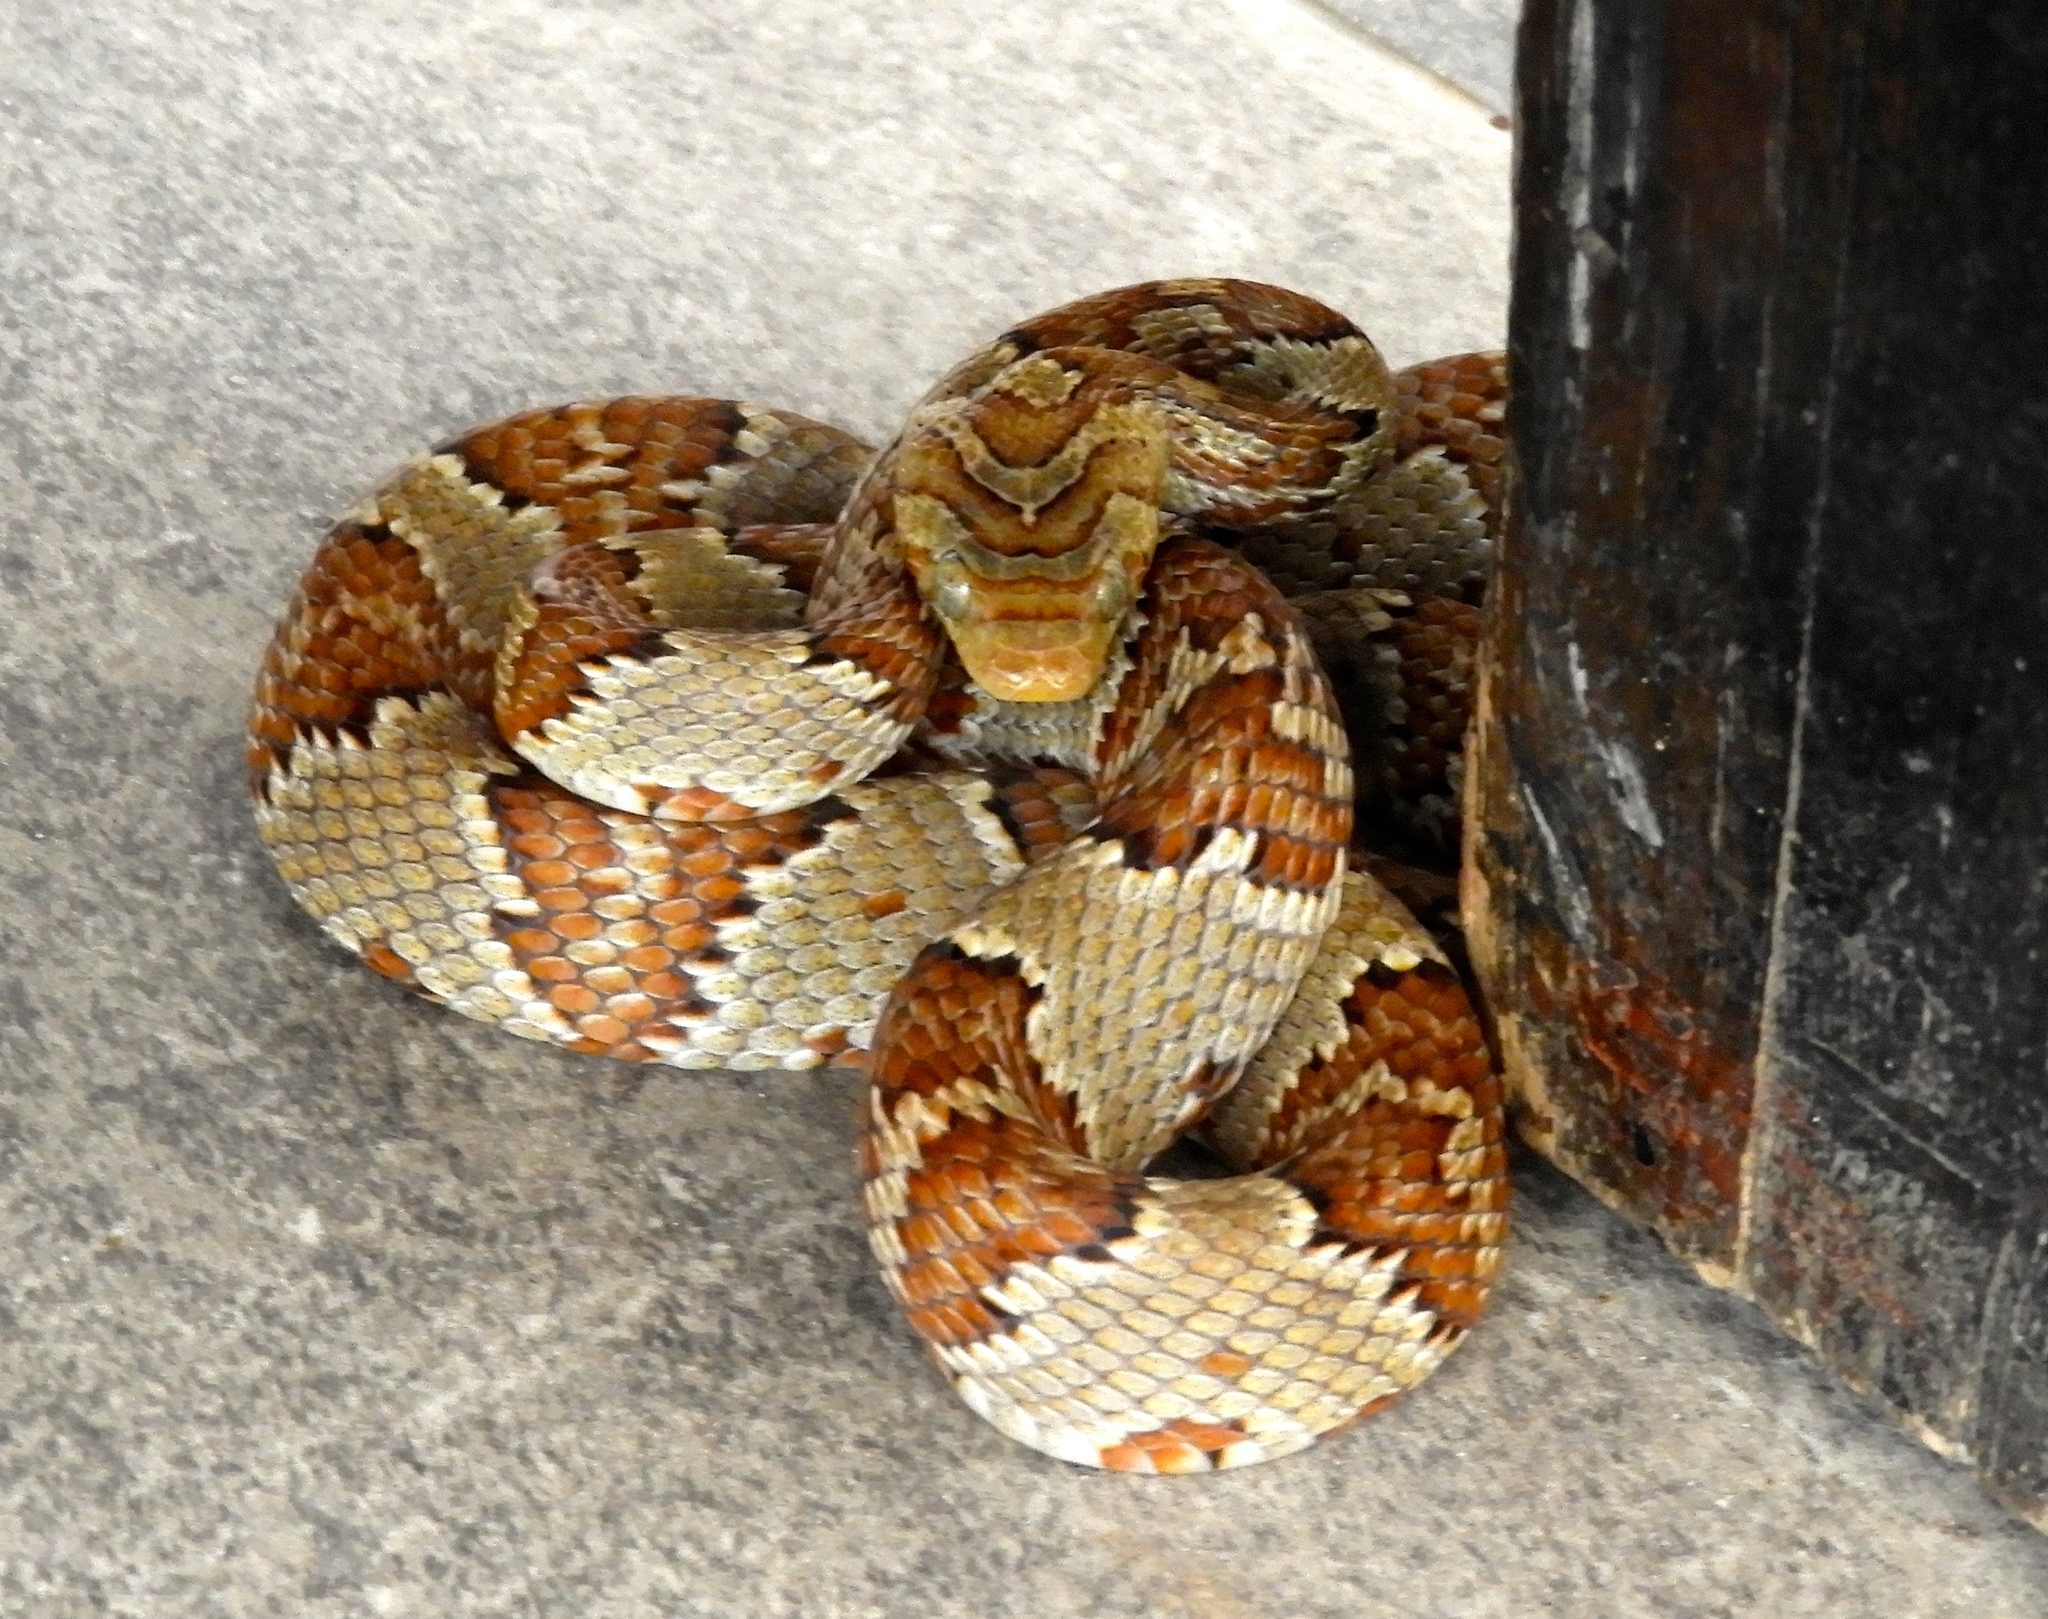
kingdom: Animalia
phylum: Chordata
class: Squamata
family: Colubridae
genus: Trimorphodon
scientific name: Trimorphodon paucimaculatus
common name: Sinaloan lyresnake
